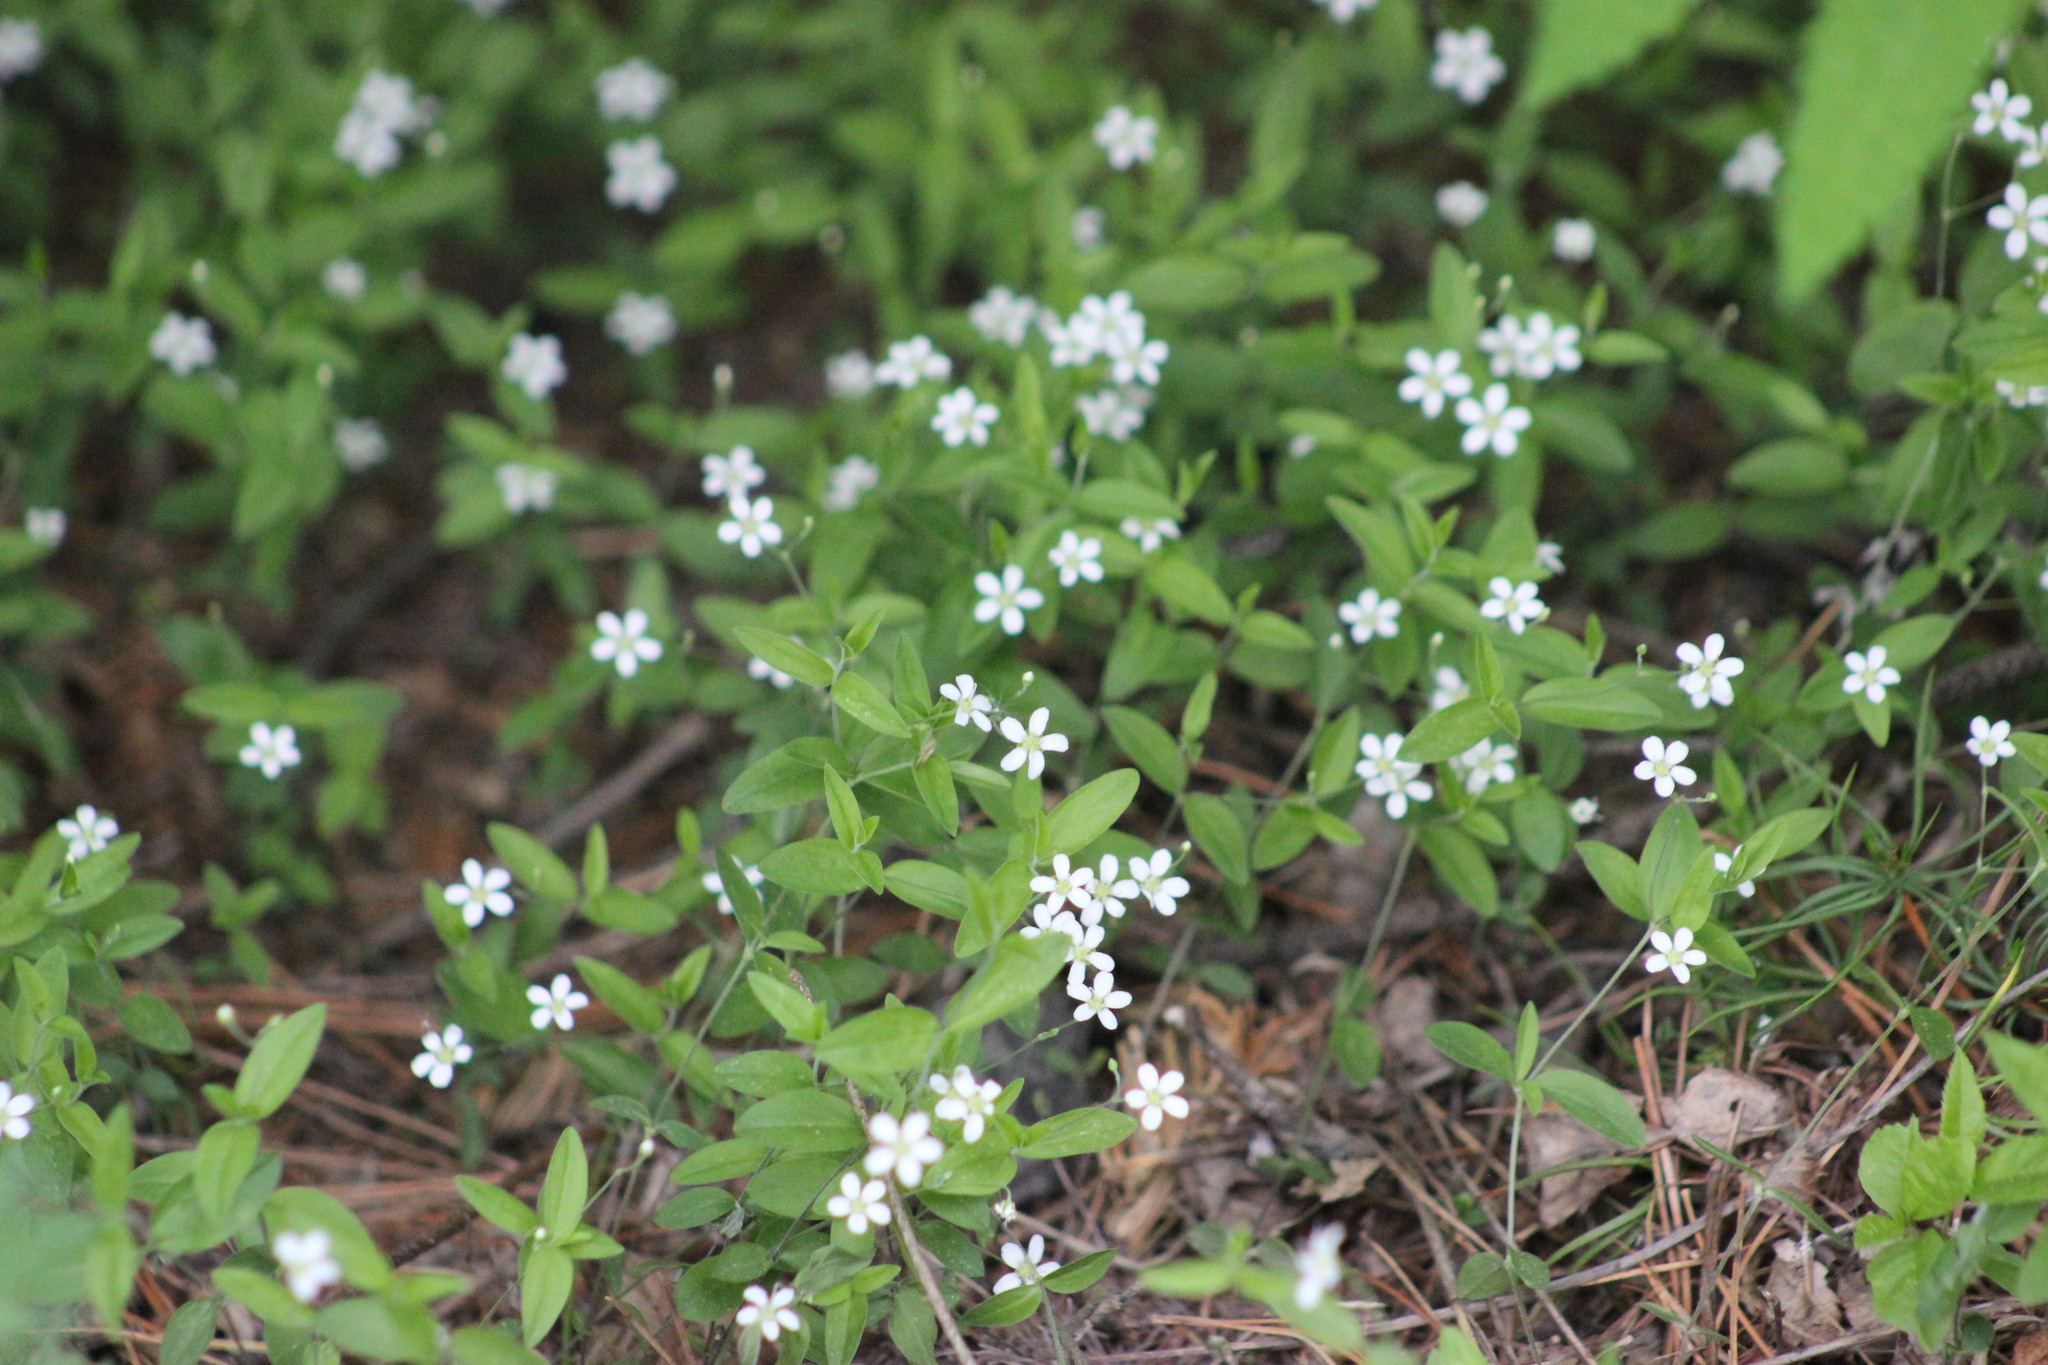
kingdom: Plantae
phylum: Tracheophyta
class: Magnoliopsida
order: Caryophyllales
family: Caryophyllaceae
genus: Moehringia
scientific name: Moehringia lateriflora
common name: Blunt-leaved sandwort
